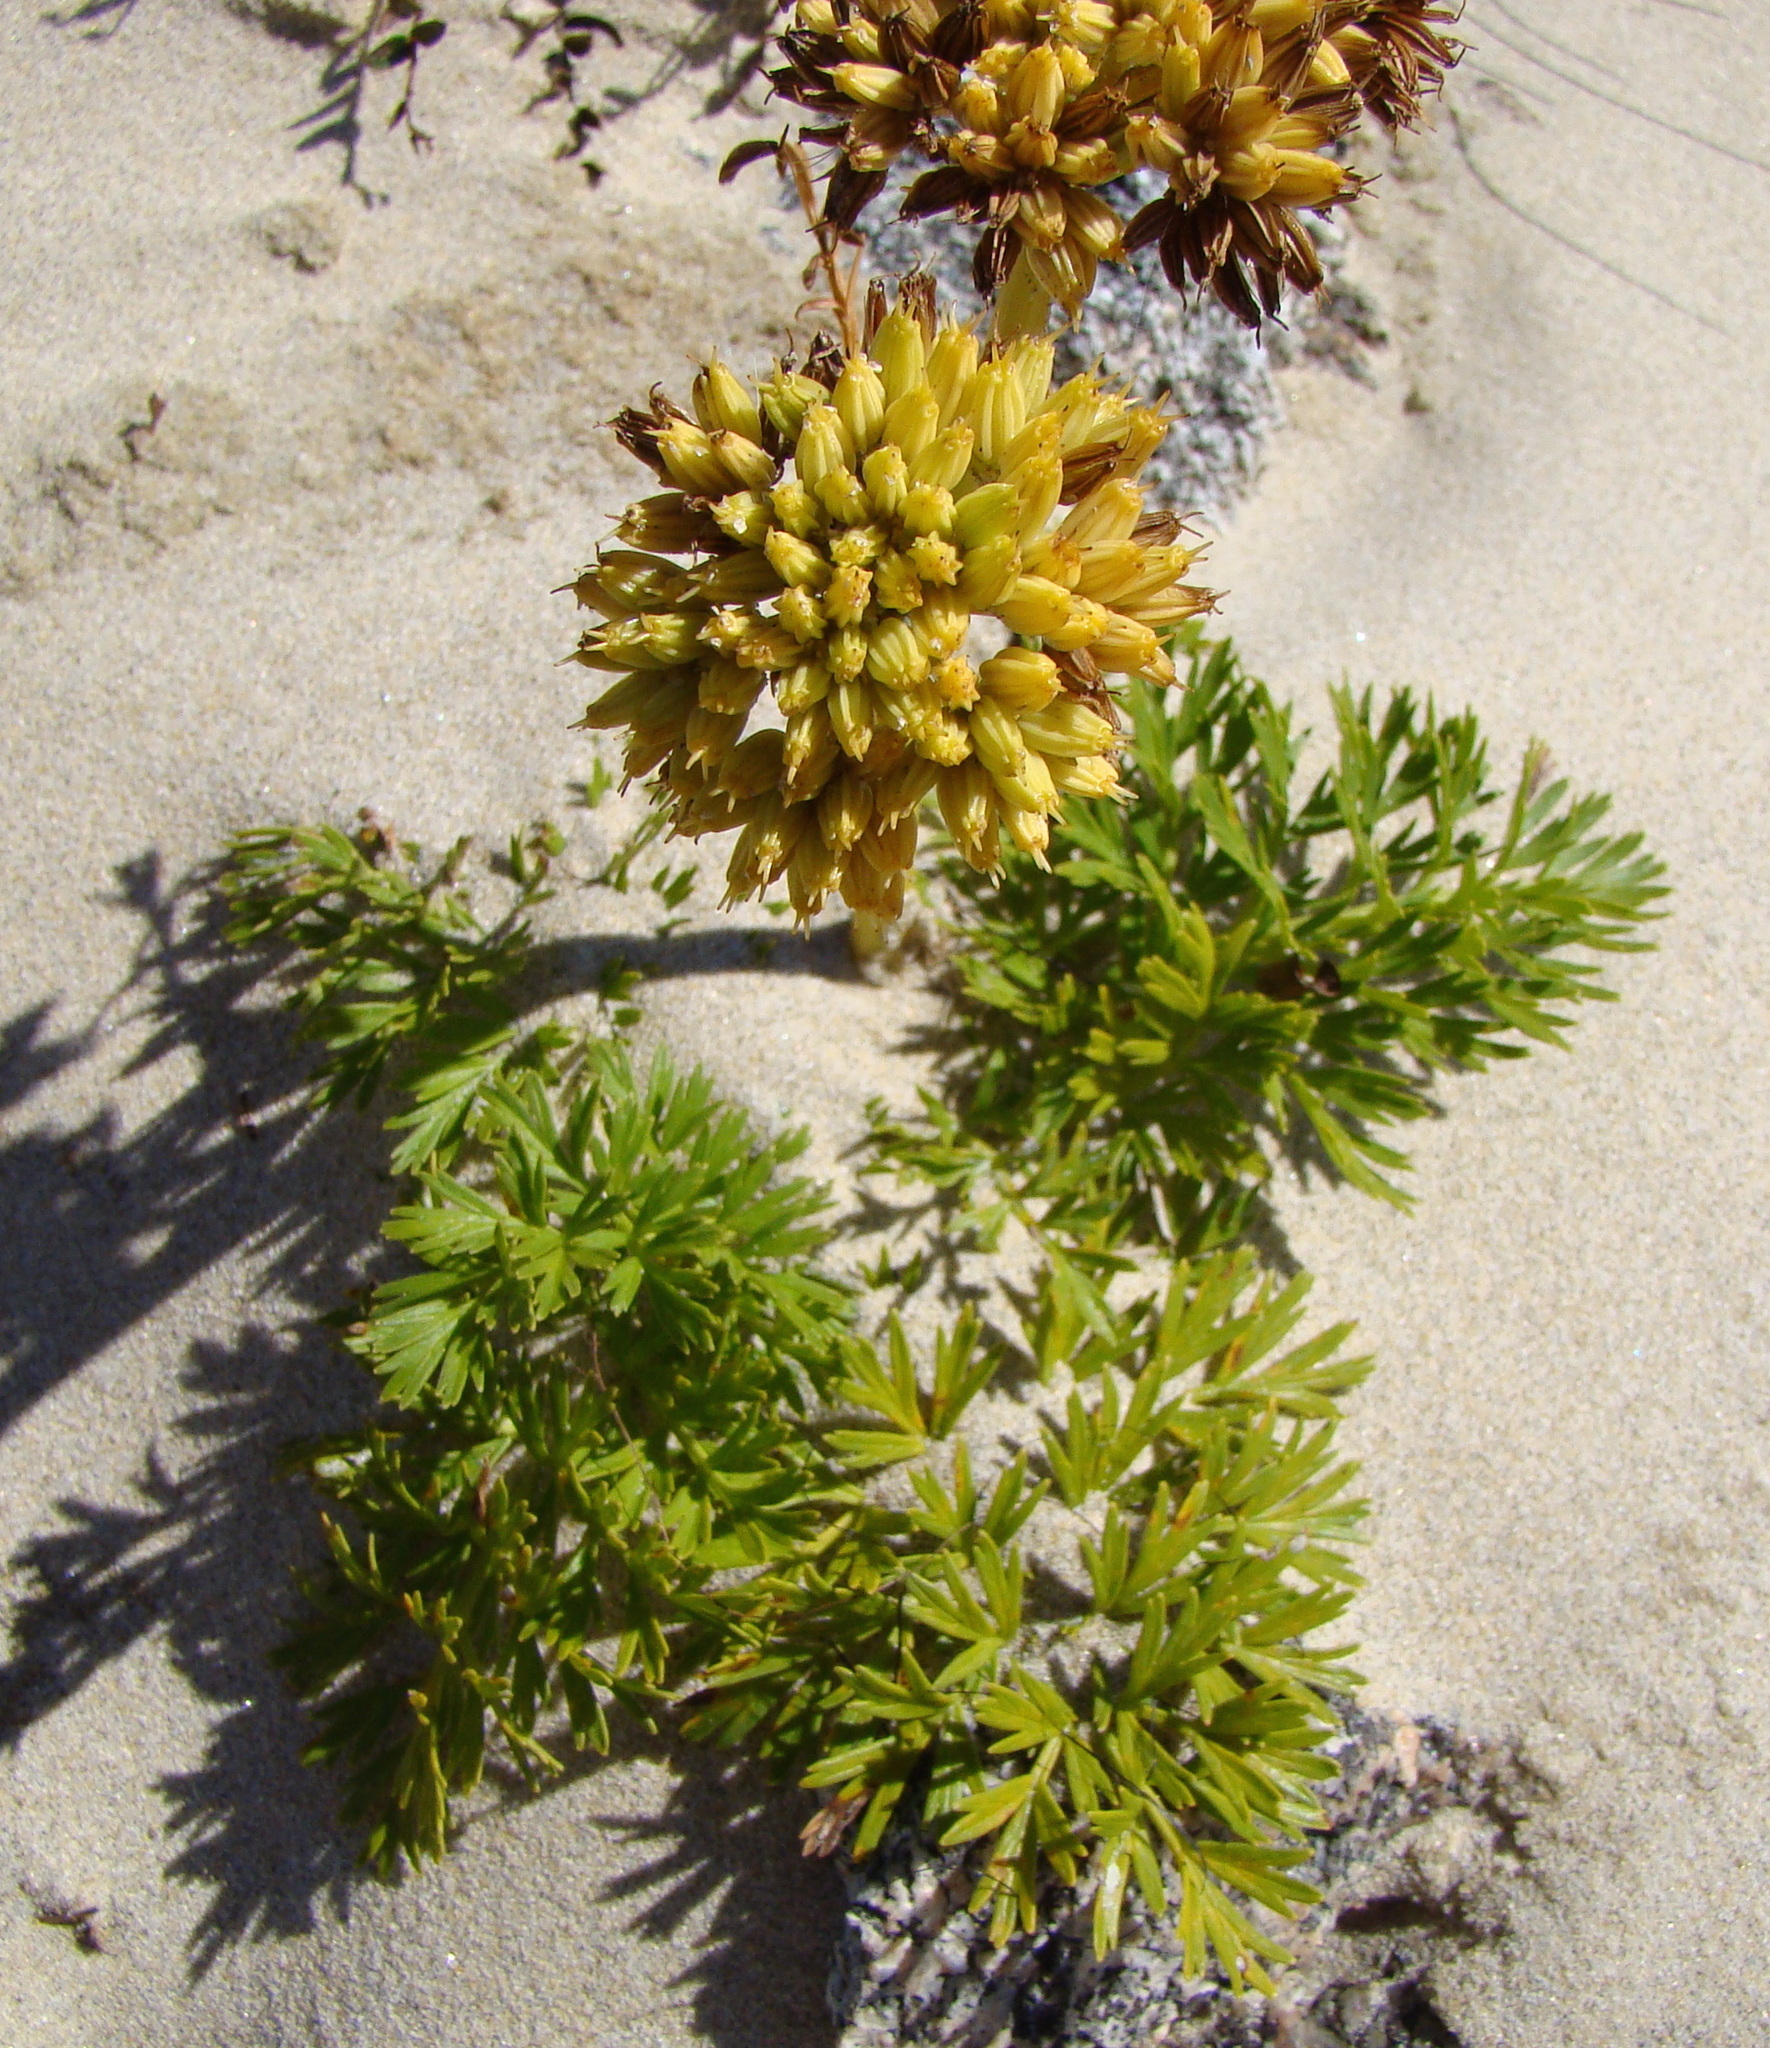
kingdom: Plantae
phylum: Tracheophyta
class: Magnoliopsida
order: Apiales
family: Apiaceae
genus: Anisotome
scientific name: Anisotome lyallii
